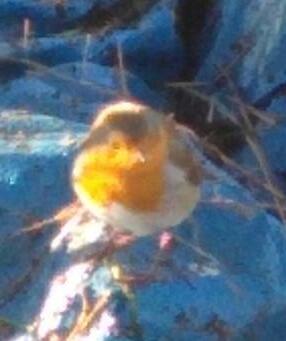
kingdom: Animalia
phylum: Chordata
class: Aves
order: Passeriformes
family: Muscicapidae
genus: Erithacus
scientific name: Erithacus rubecula
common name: European robin
